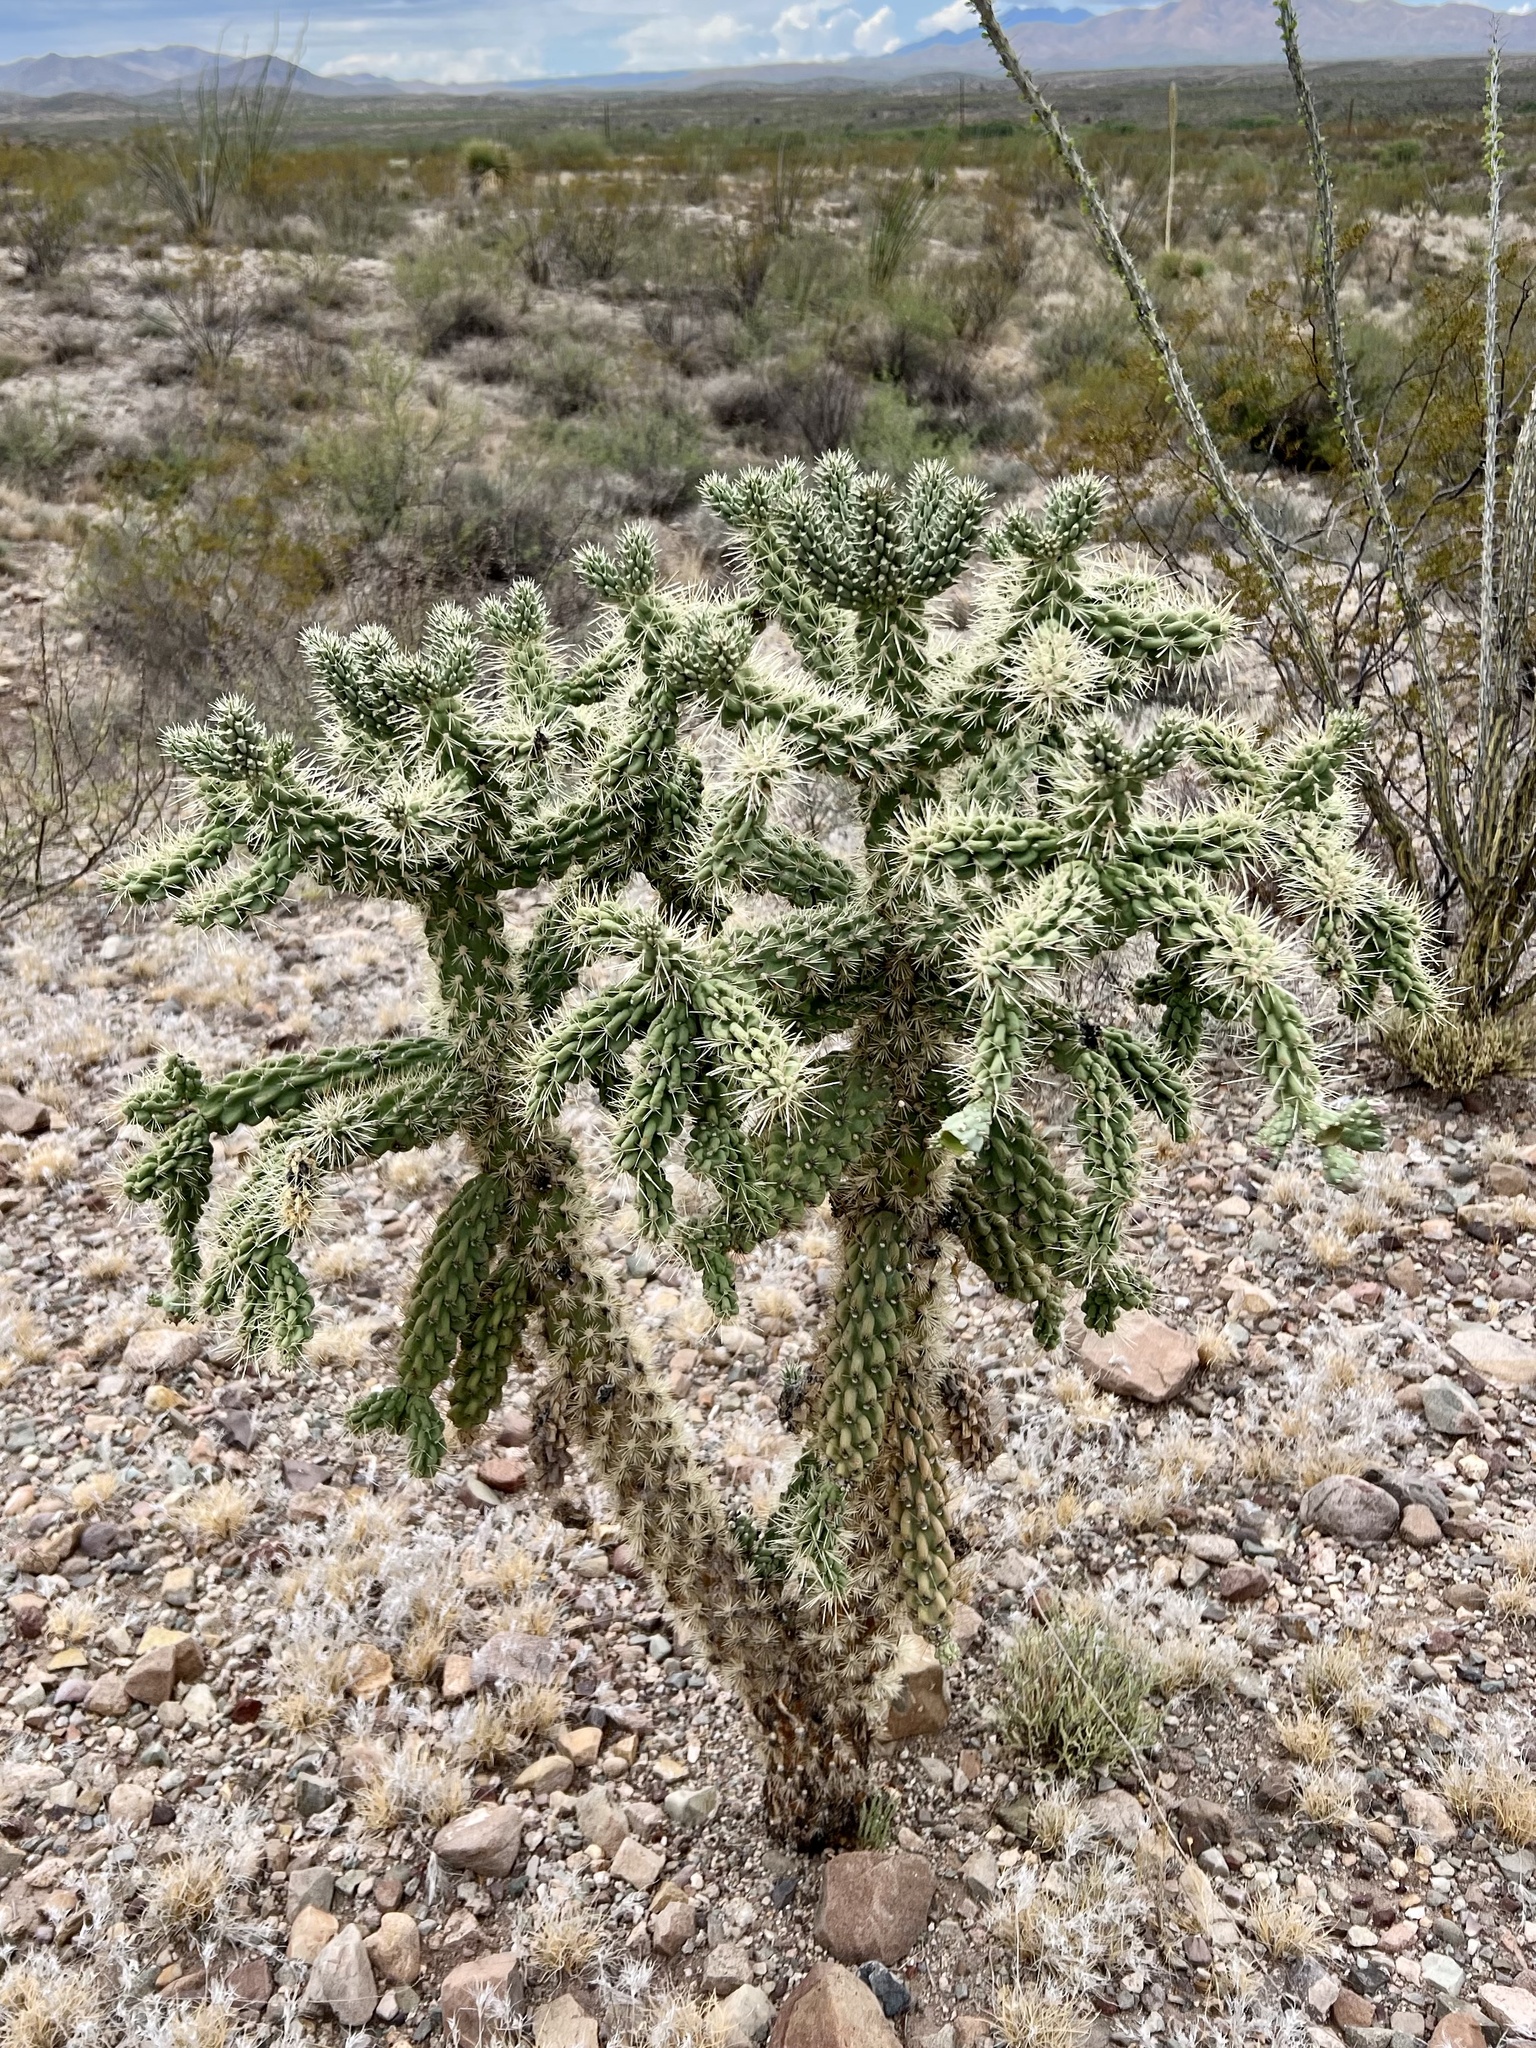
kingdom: Plantae
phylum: Tracheophyta
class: Magnoliopsida
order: Caryophyllales
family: Cactaceae
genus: Cylindropuntia
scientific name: Cylindropuntia fulgida
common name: Jumping cholla
